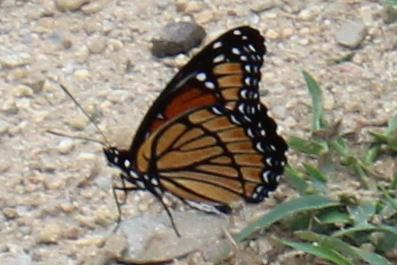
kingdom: Animalia
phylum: Arthropoda
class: Insecta
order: Lepidoptera
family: Nymphalidae
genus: Limenitis
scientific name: Limenitis archippus
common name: Viceroy
